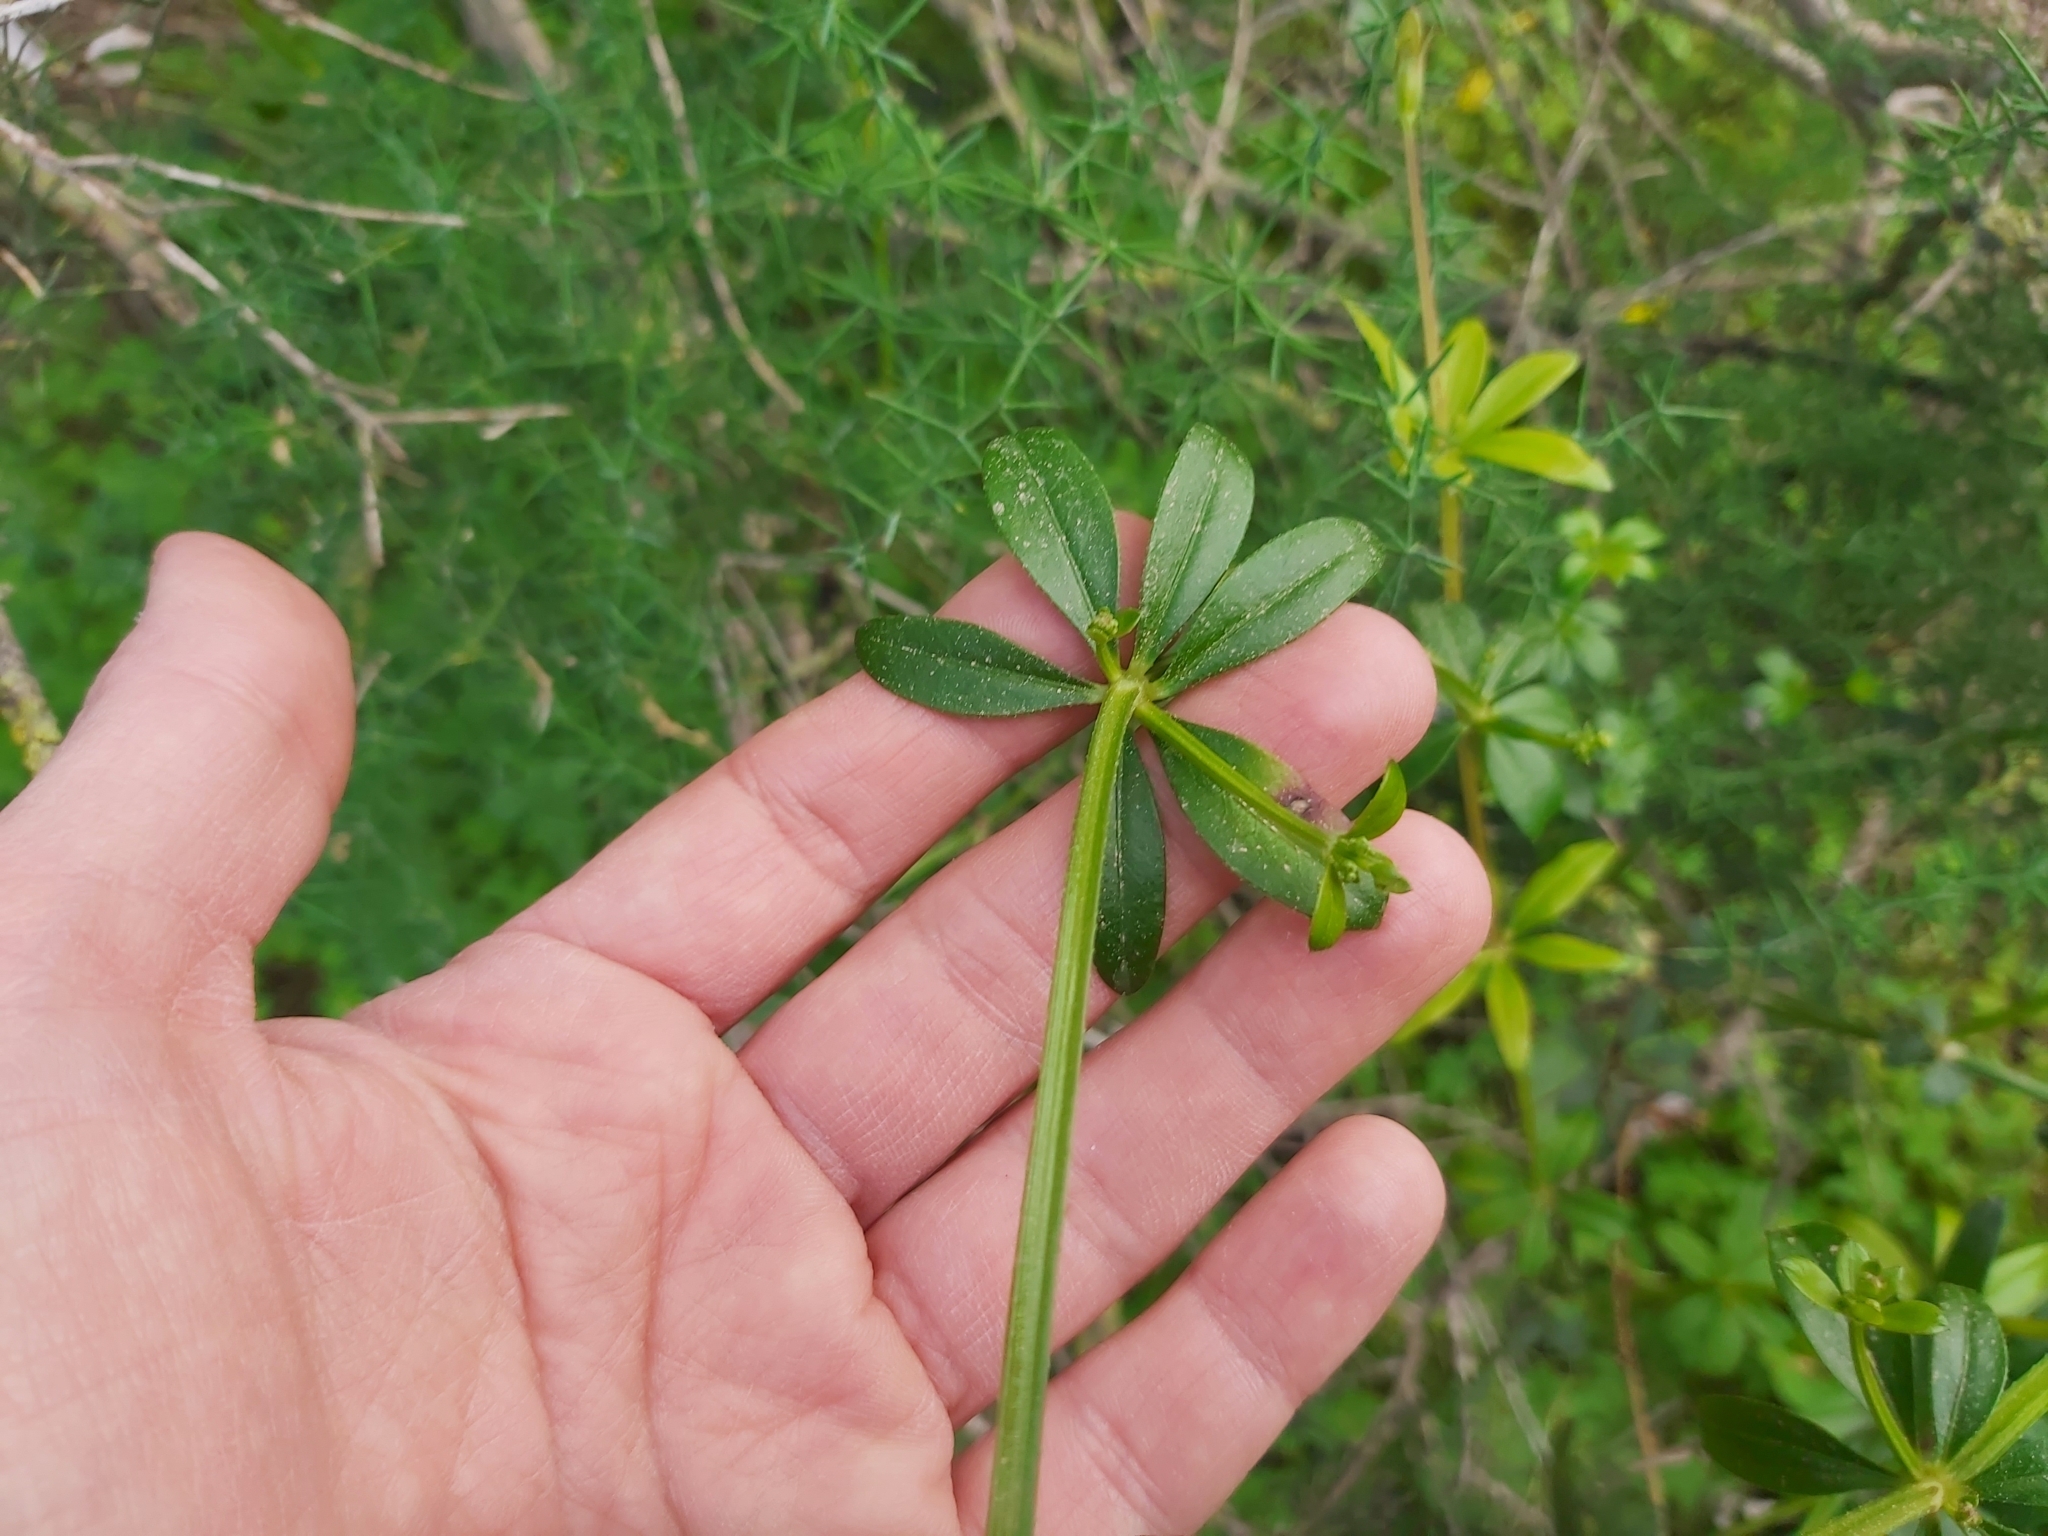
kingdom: Plantae
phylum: Tracheophyta
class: Magnoliopsida
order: Gentianales
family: Rubiaceae
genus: Rubia
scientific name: Rubia peregrina
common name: Wild madder
